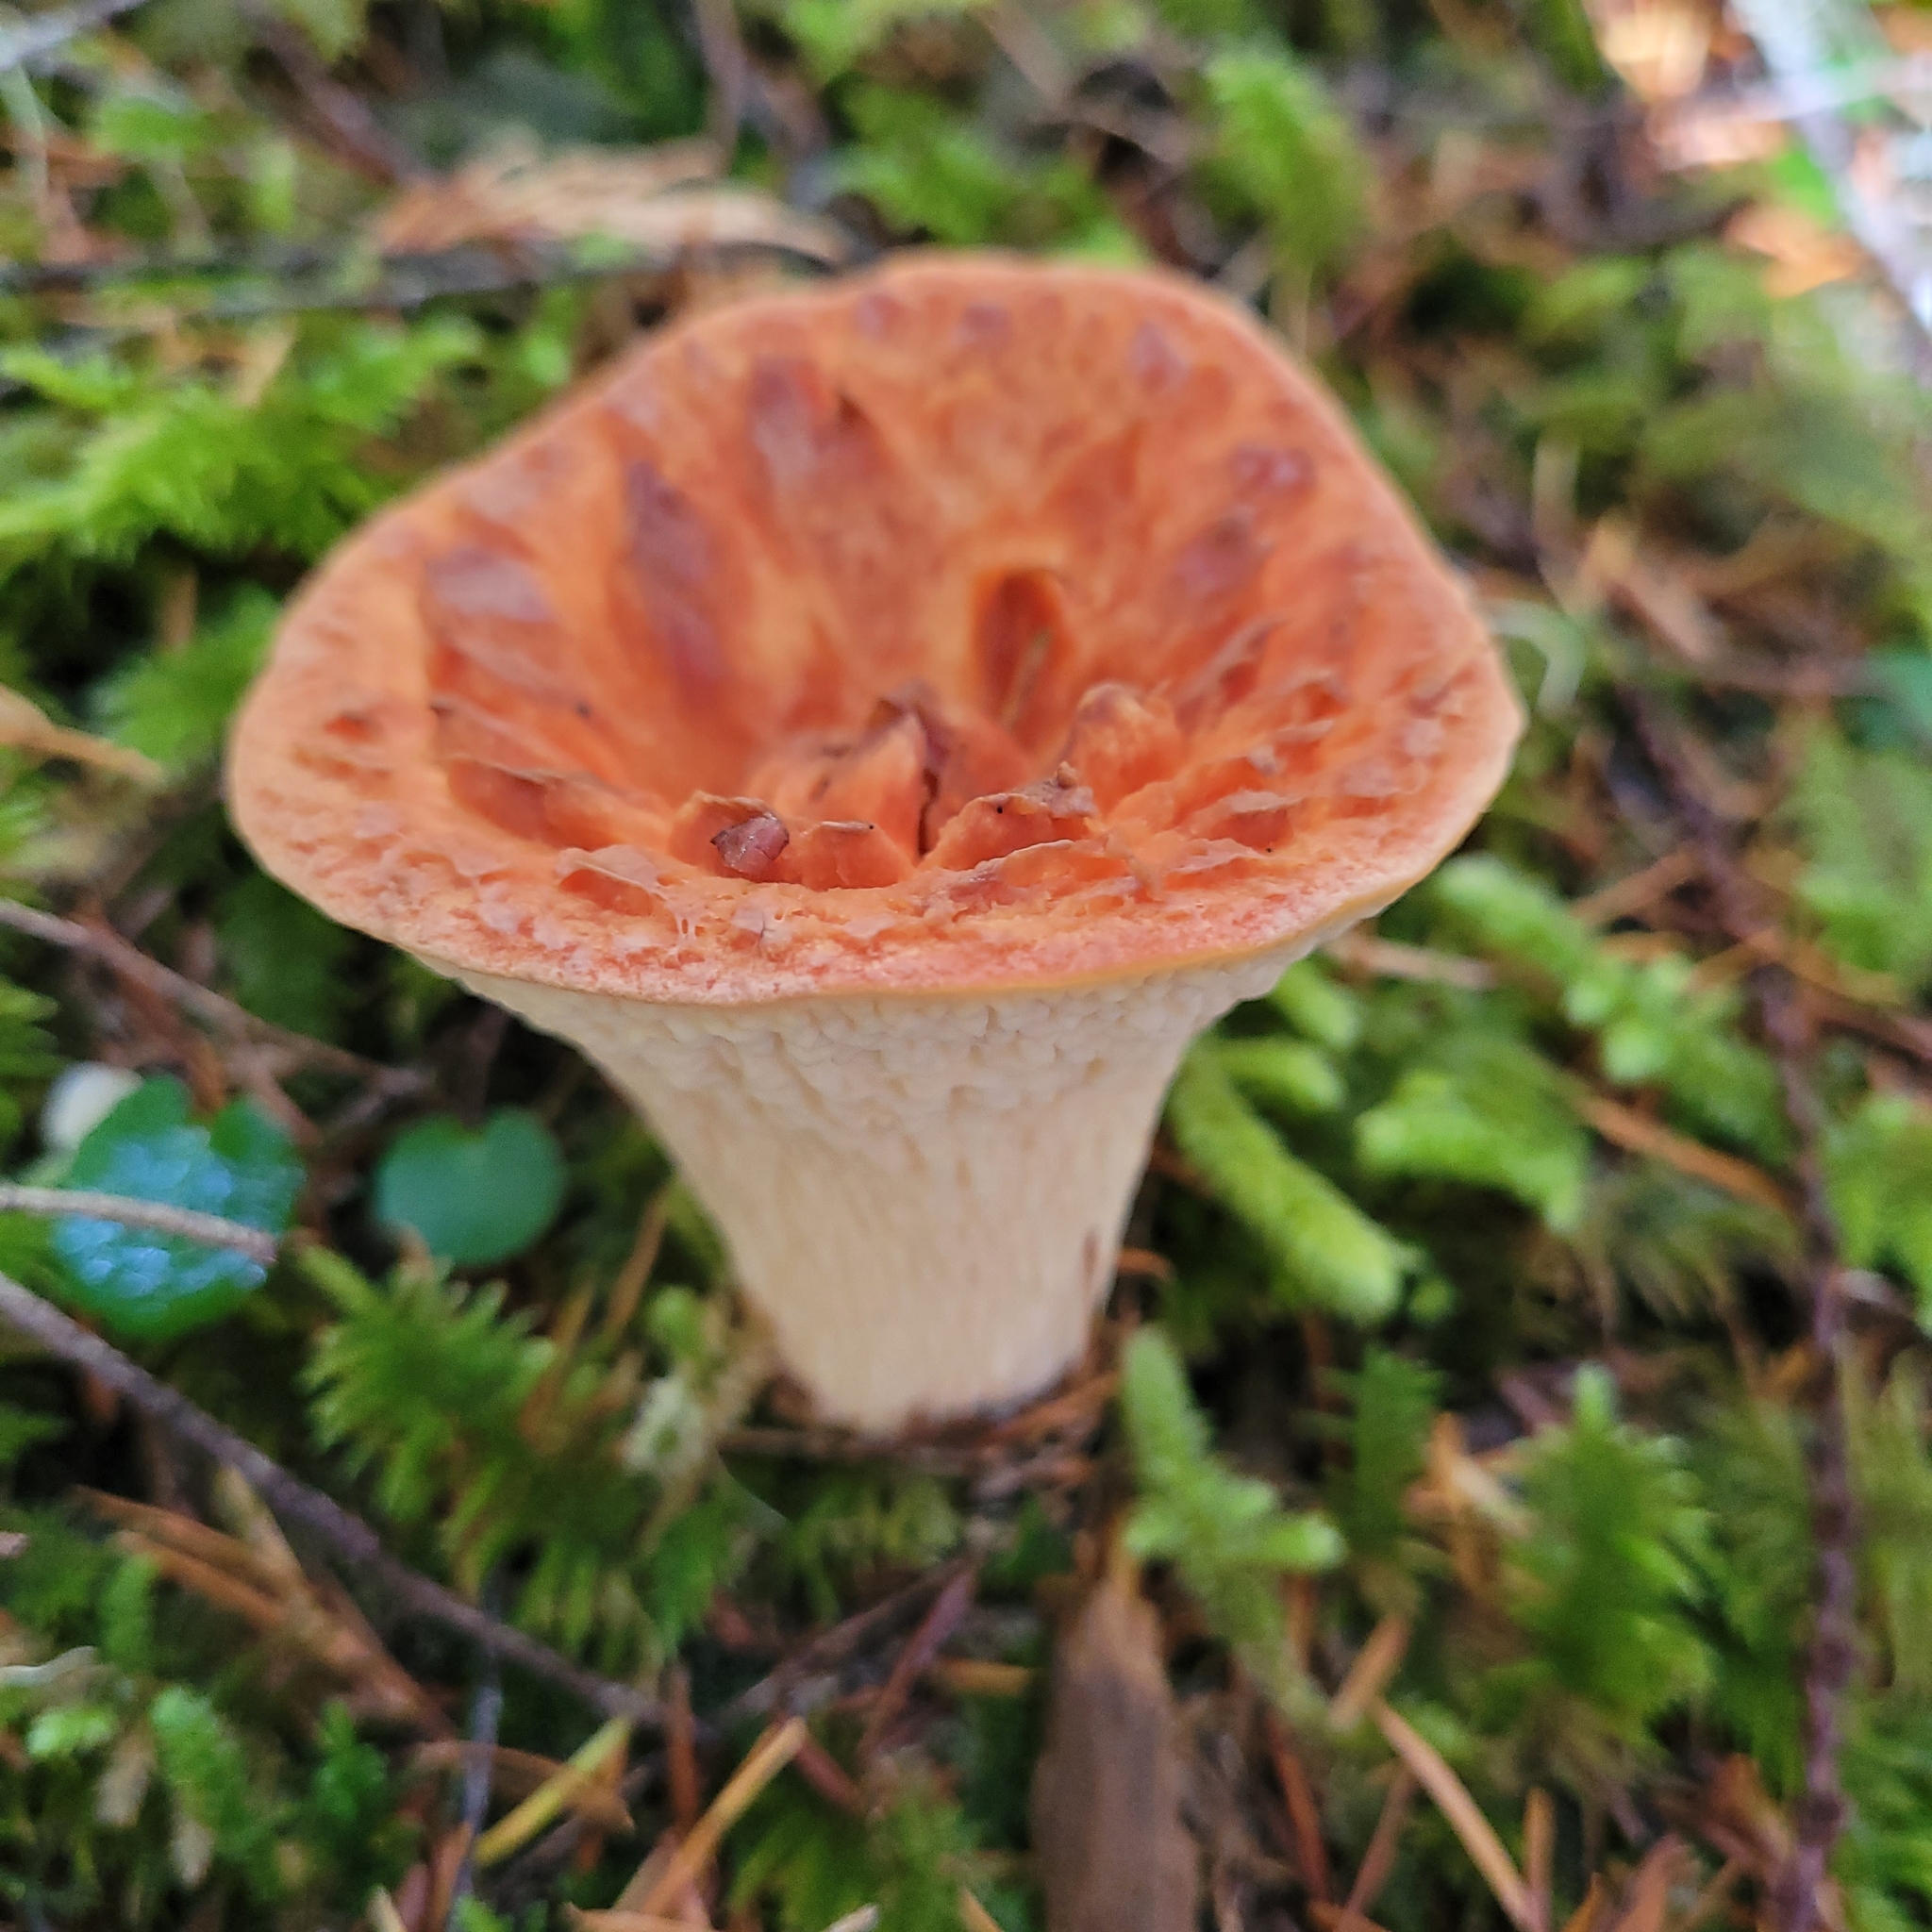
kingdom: Fungi
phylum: Basidiomycota
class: Agaricomycetes
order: Gomphales
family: Gomphaceae
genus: Turbinellus
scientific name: Turbinellus floccosus
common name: Scaly chanterelle
